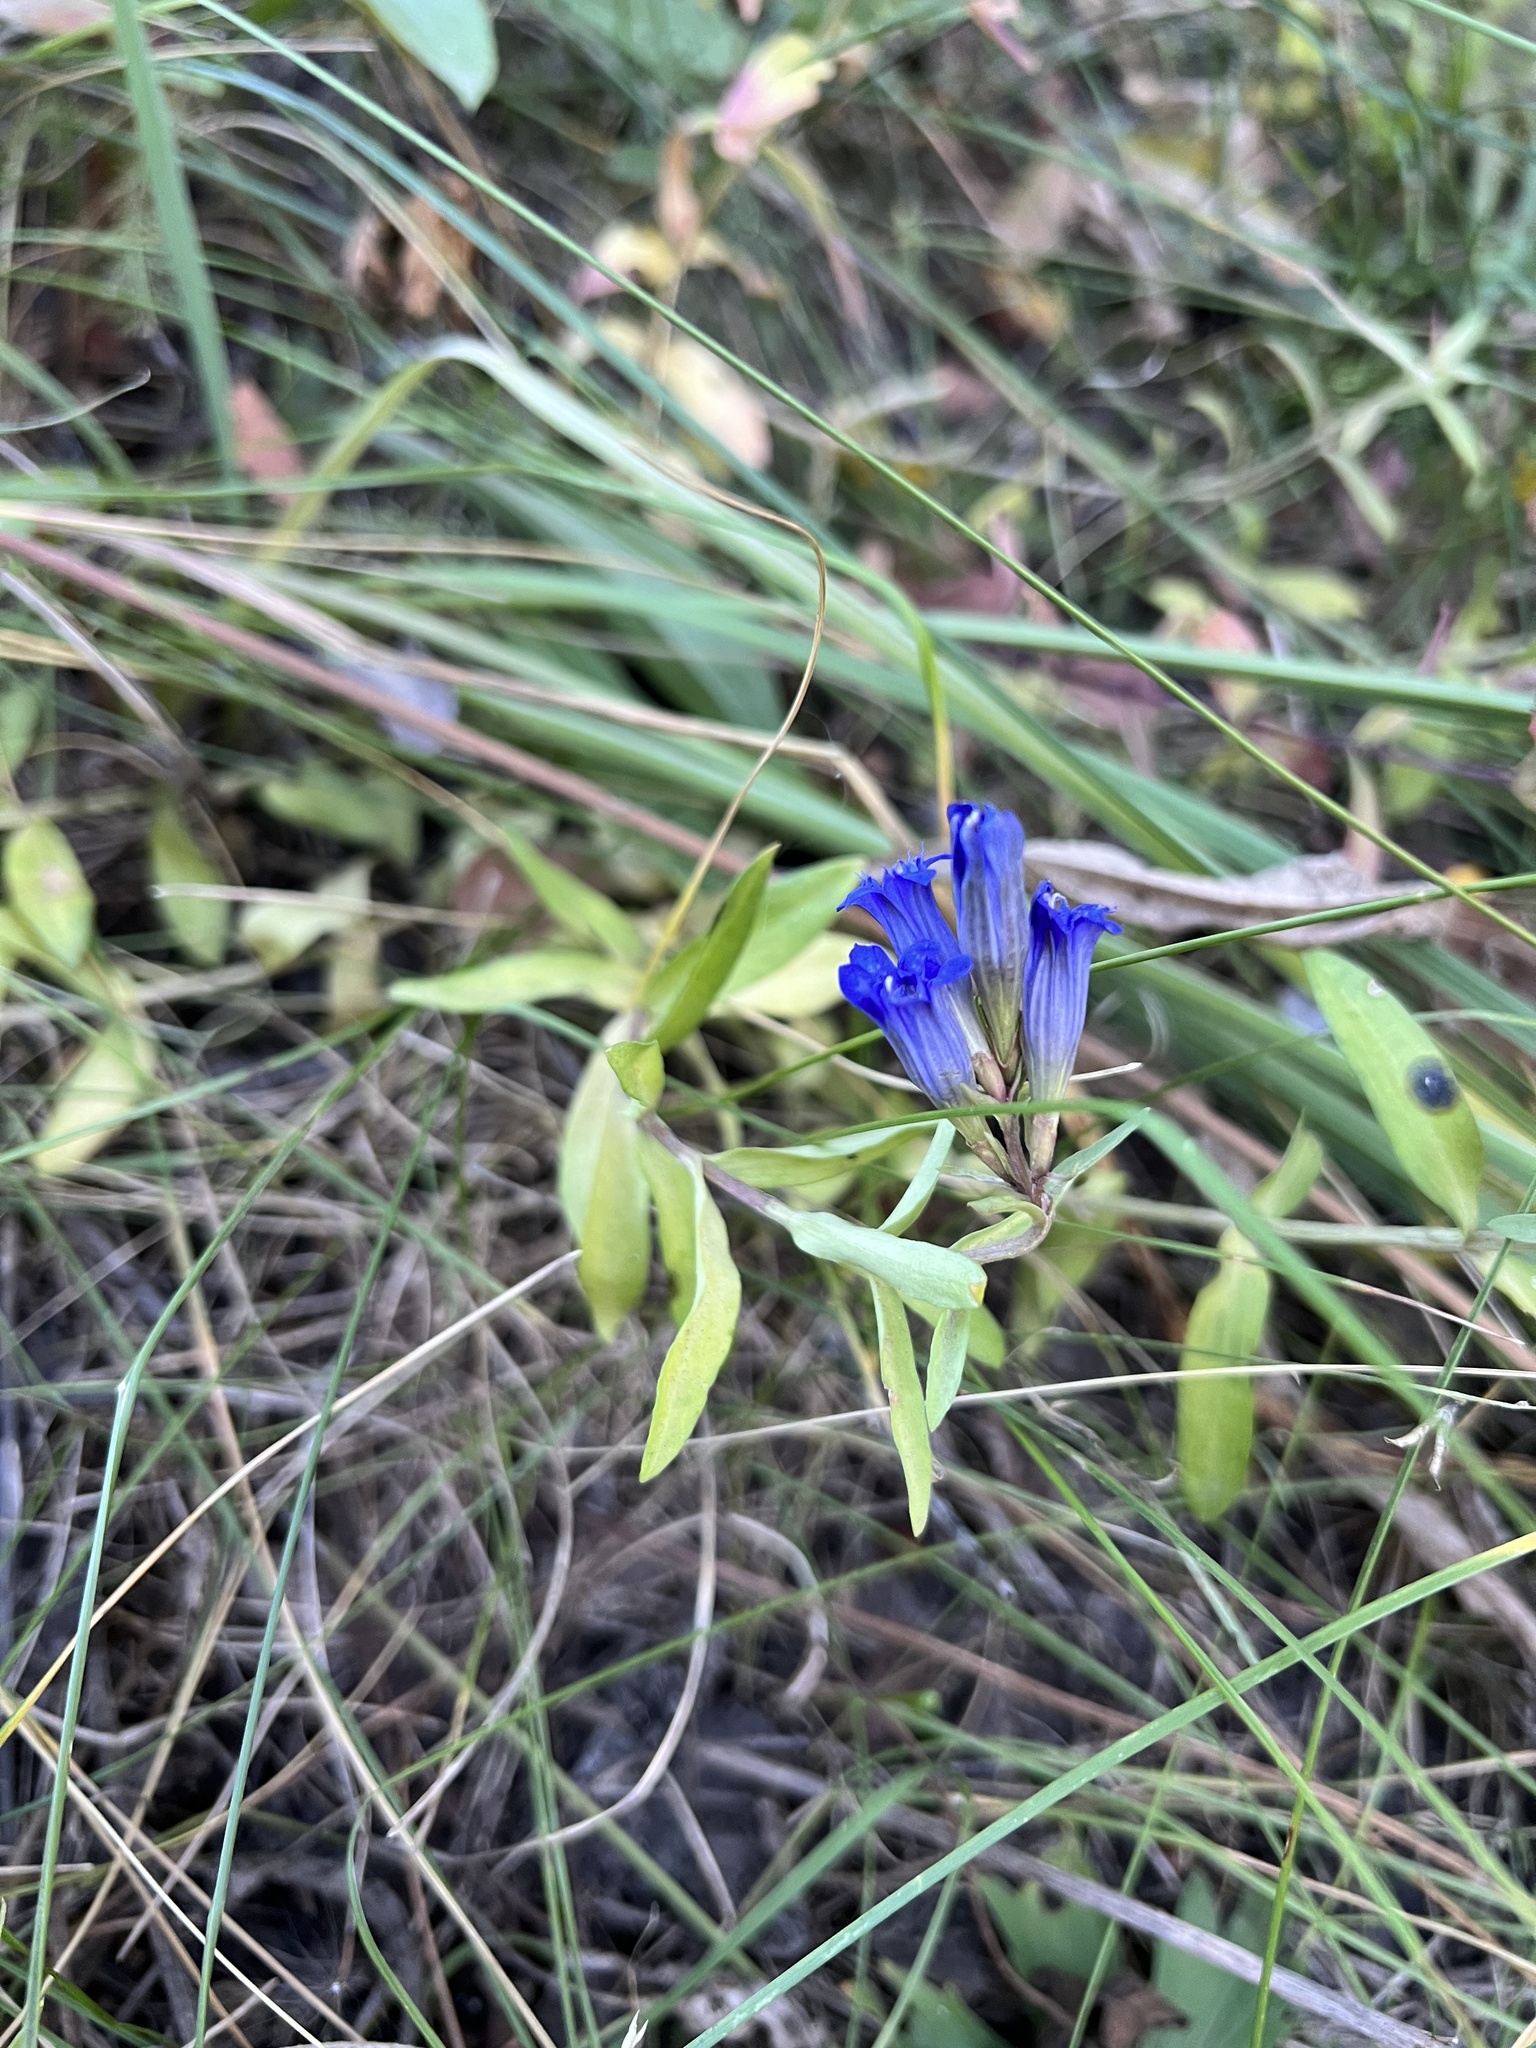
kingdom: Plantae
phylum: Tracheophyta
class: Magnoliopsida
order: Gentianales
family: Gentianaceae
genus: Gentiana
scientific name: Gentiana affinis
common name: Rocky mountain gentian
